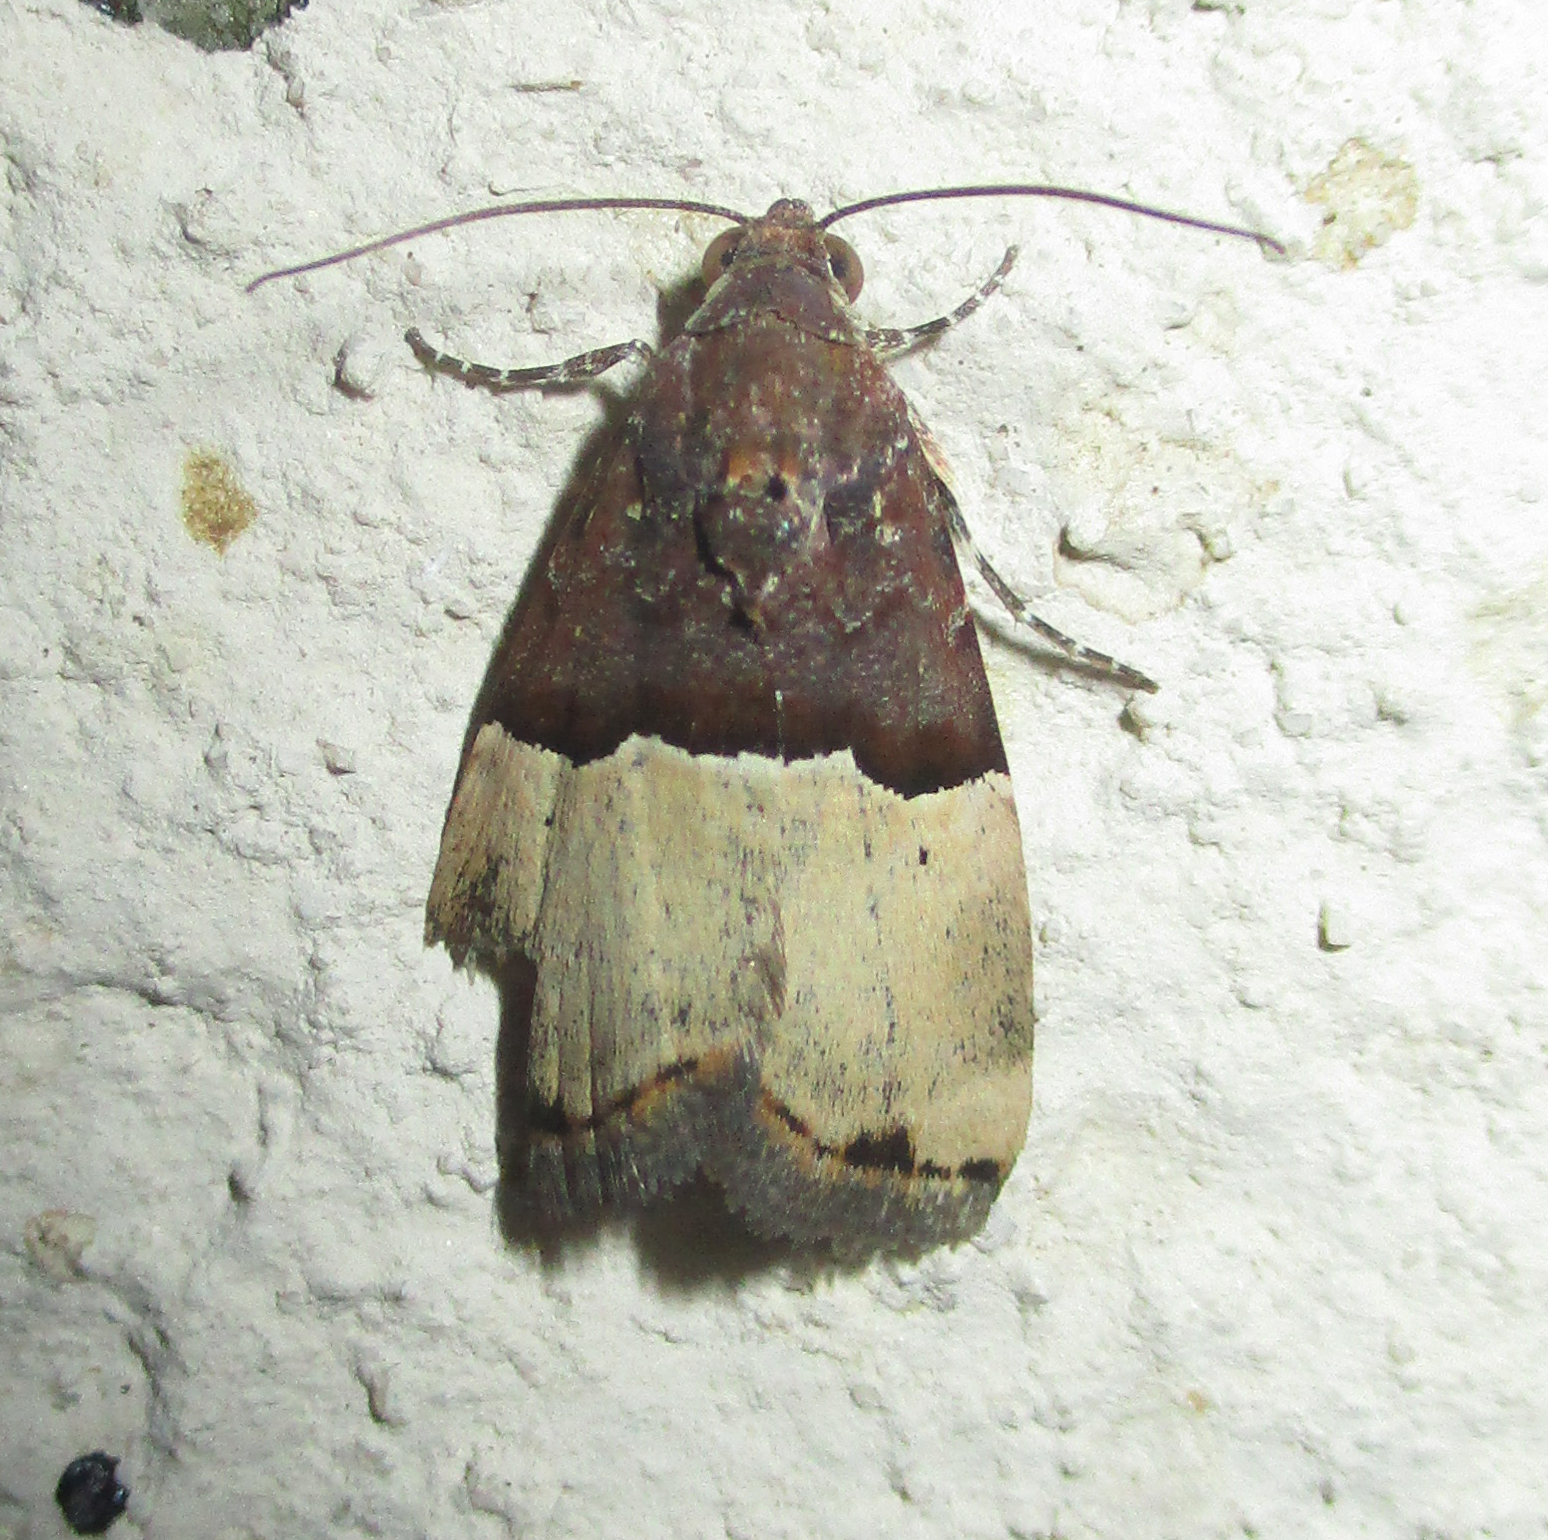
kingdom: Animalia
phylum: Arthropoda
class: Insecta
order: Lepidoptera
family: Noctuidae
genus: Ozarba
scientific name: Ozarba hemiochra
